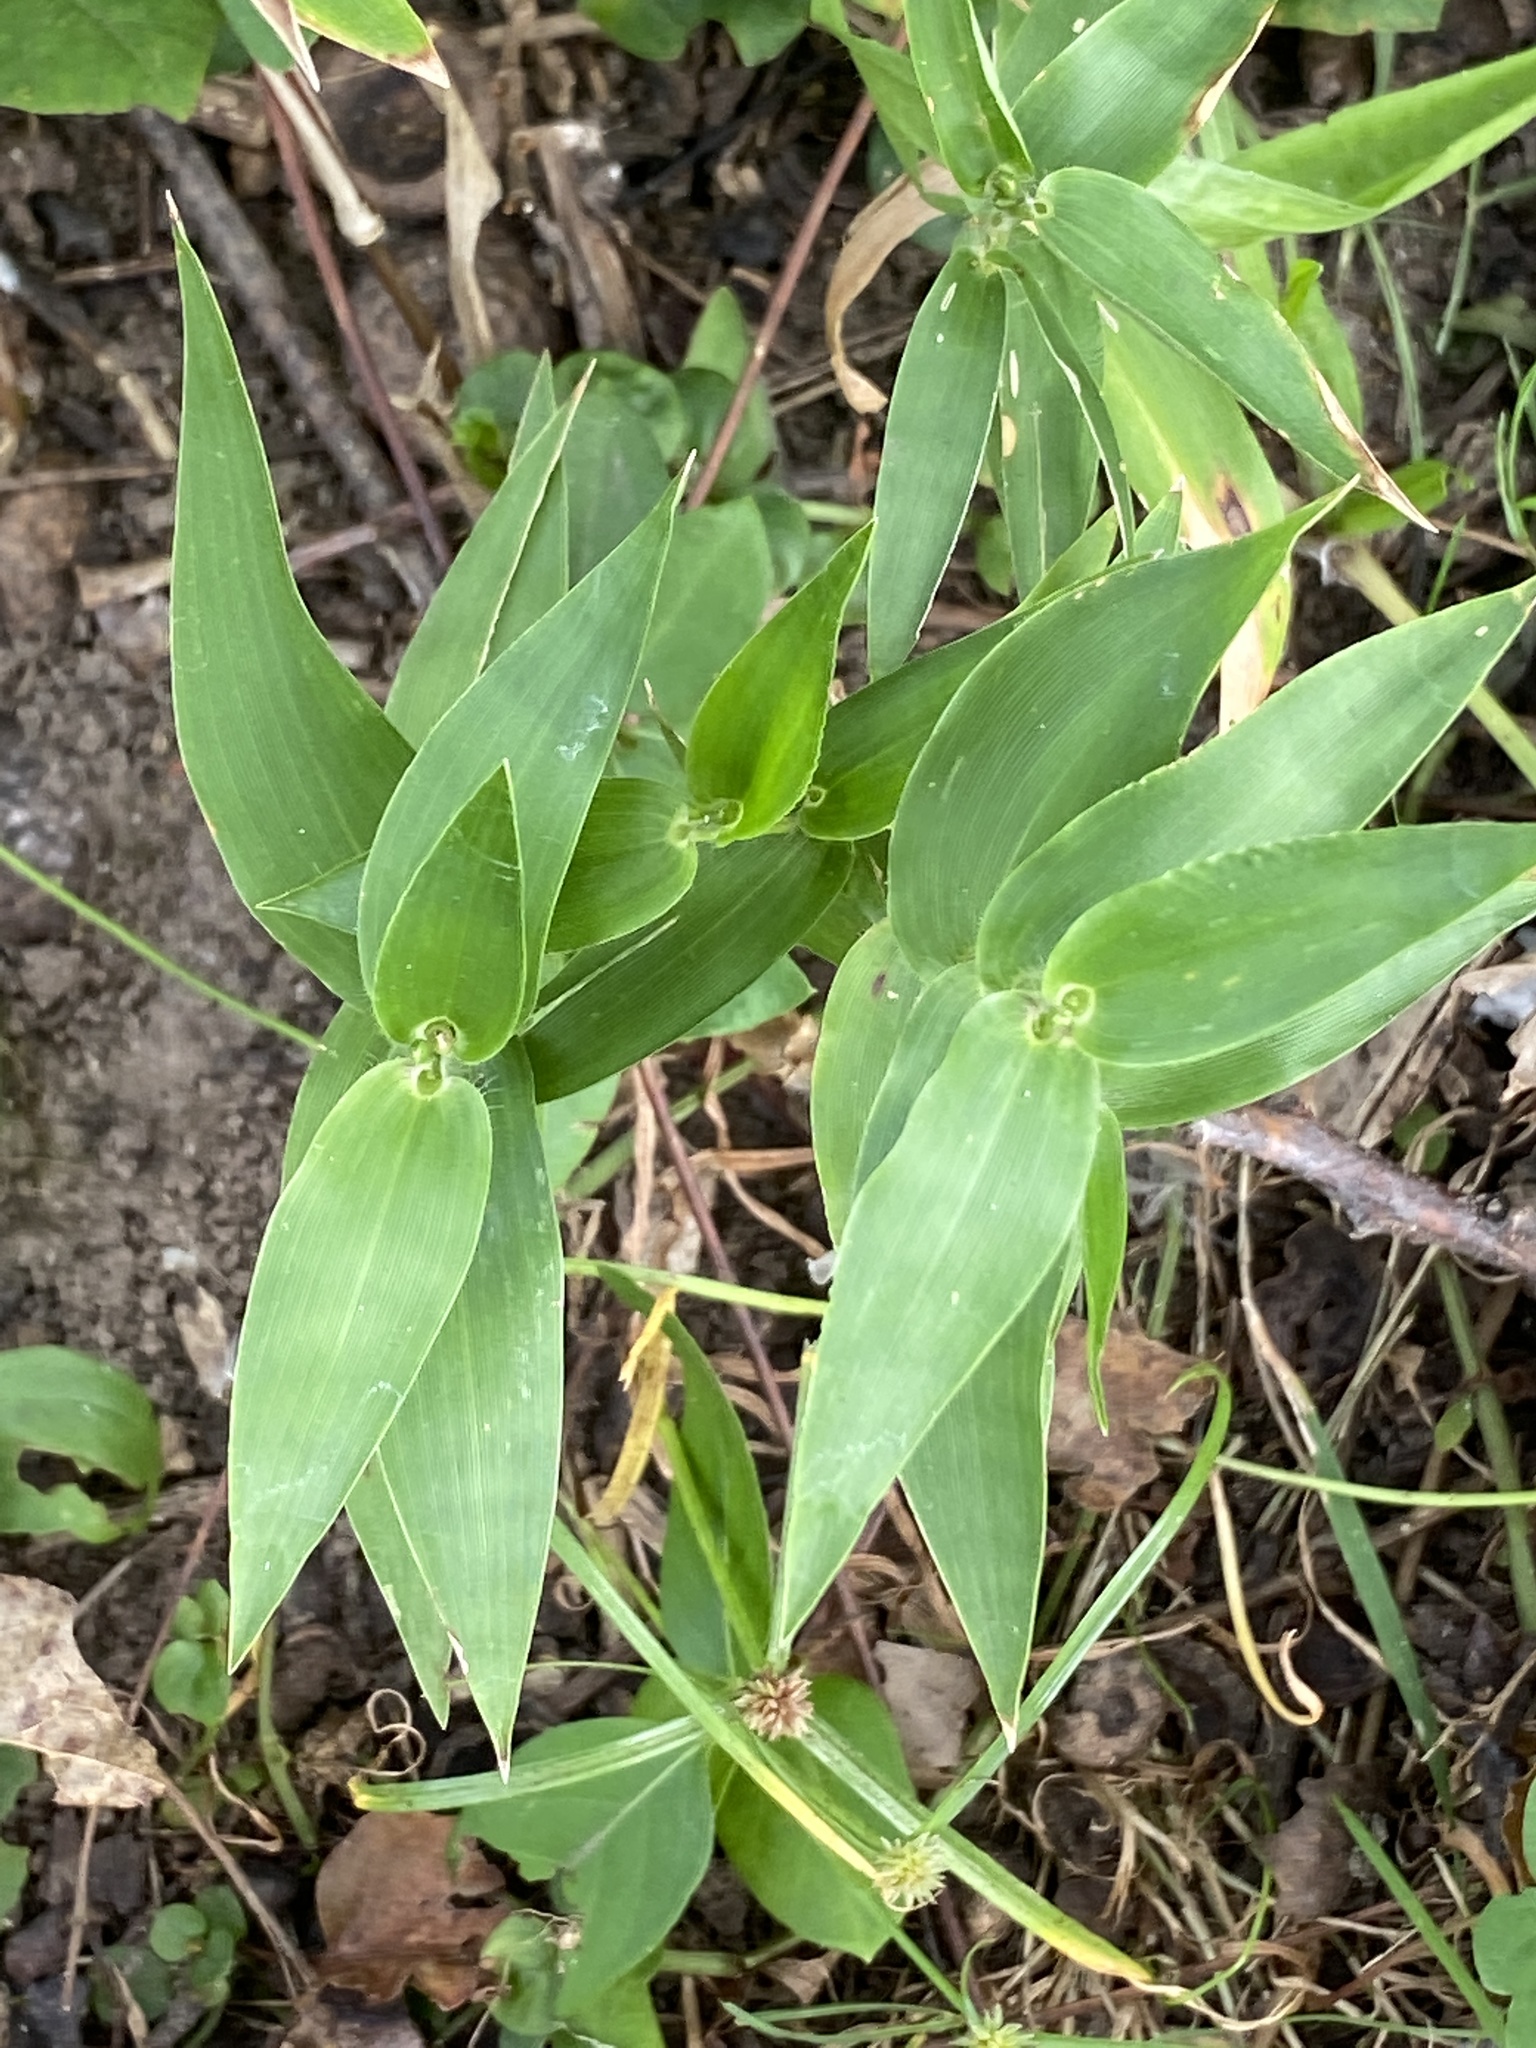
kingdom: Plantae
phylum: Tracheophyta
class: Liliopsida
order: Poales
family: Poaceae
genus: Dichanthelium
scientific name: Dichanthelium clandestinum
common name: Deer-tongue grass
